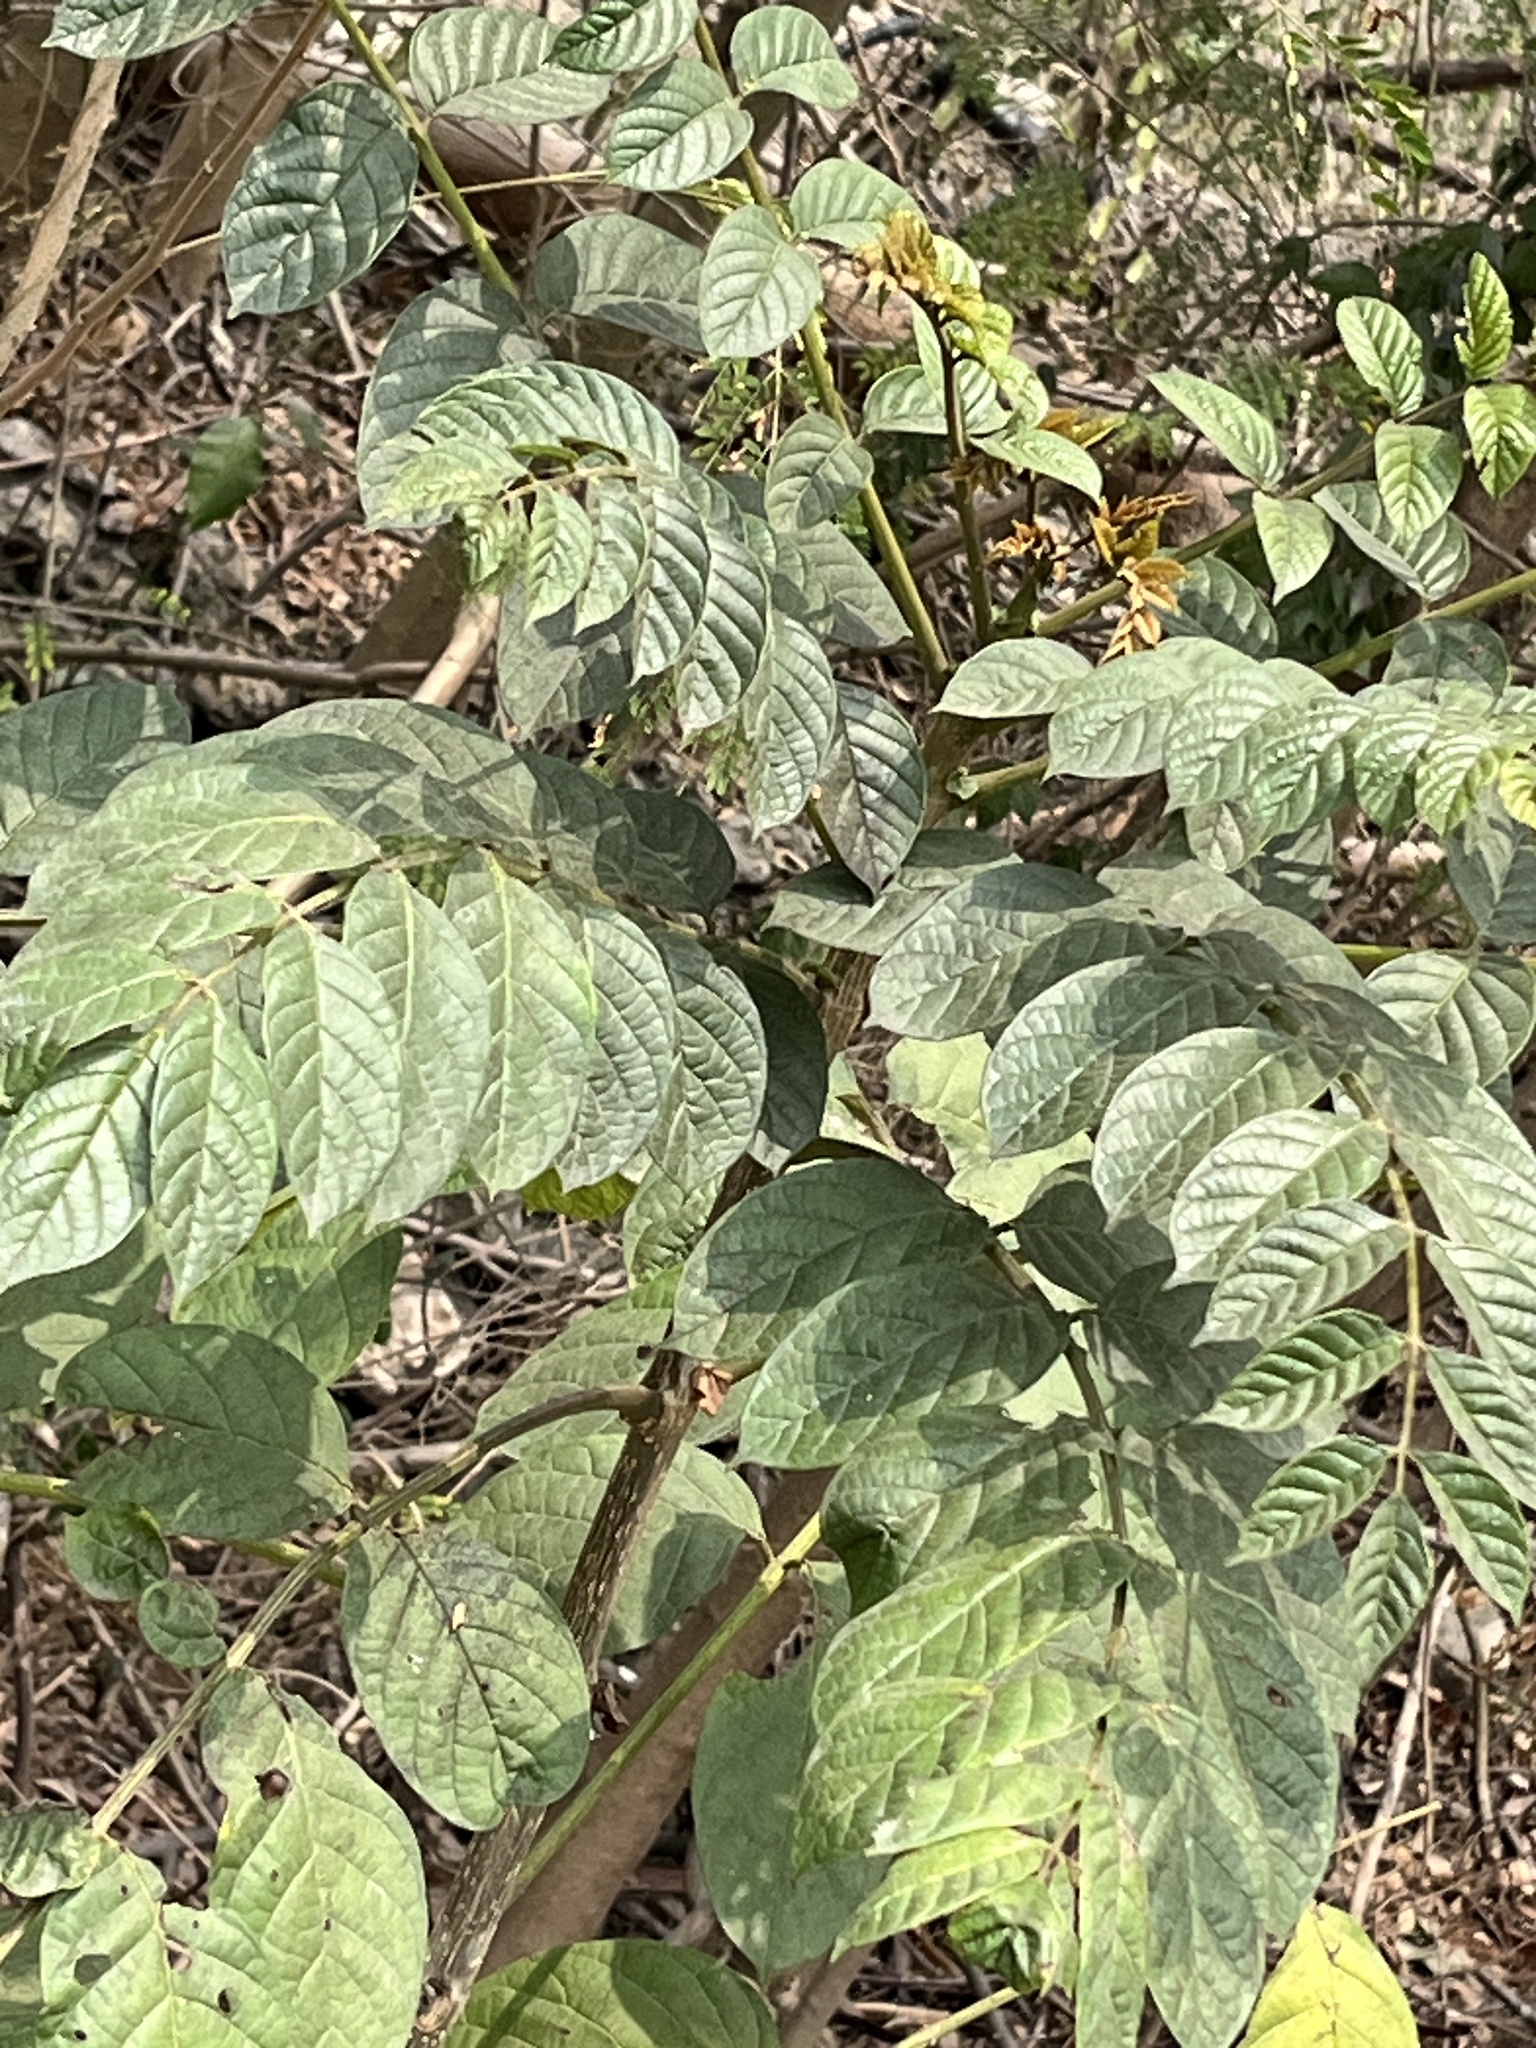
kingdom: Plantae
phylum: Tracheophyta
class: Magnoliopsida
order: Lamiales
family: Bignoniaceae
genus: Spathodea
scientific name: Spathodea campanulata
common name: African tuliptree
